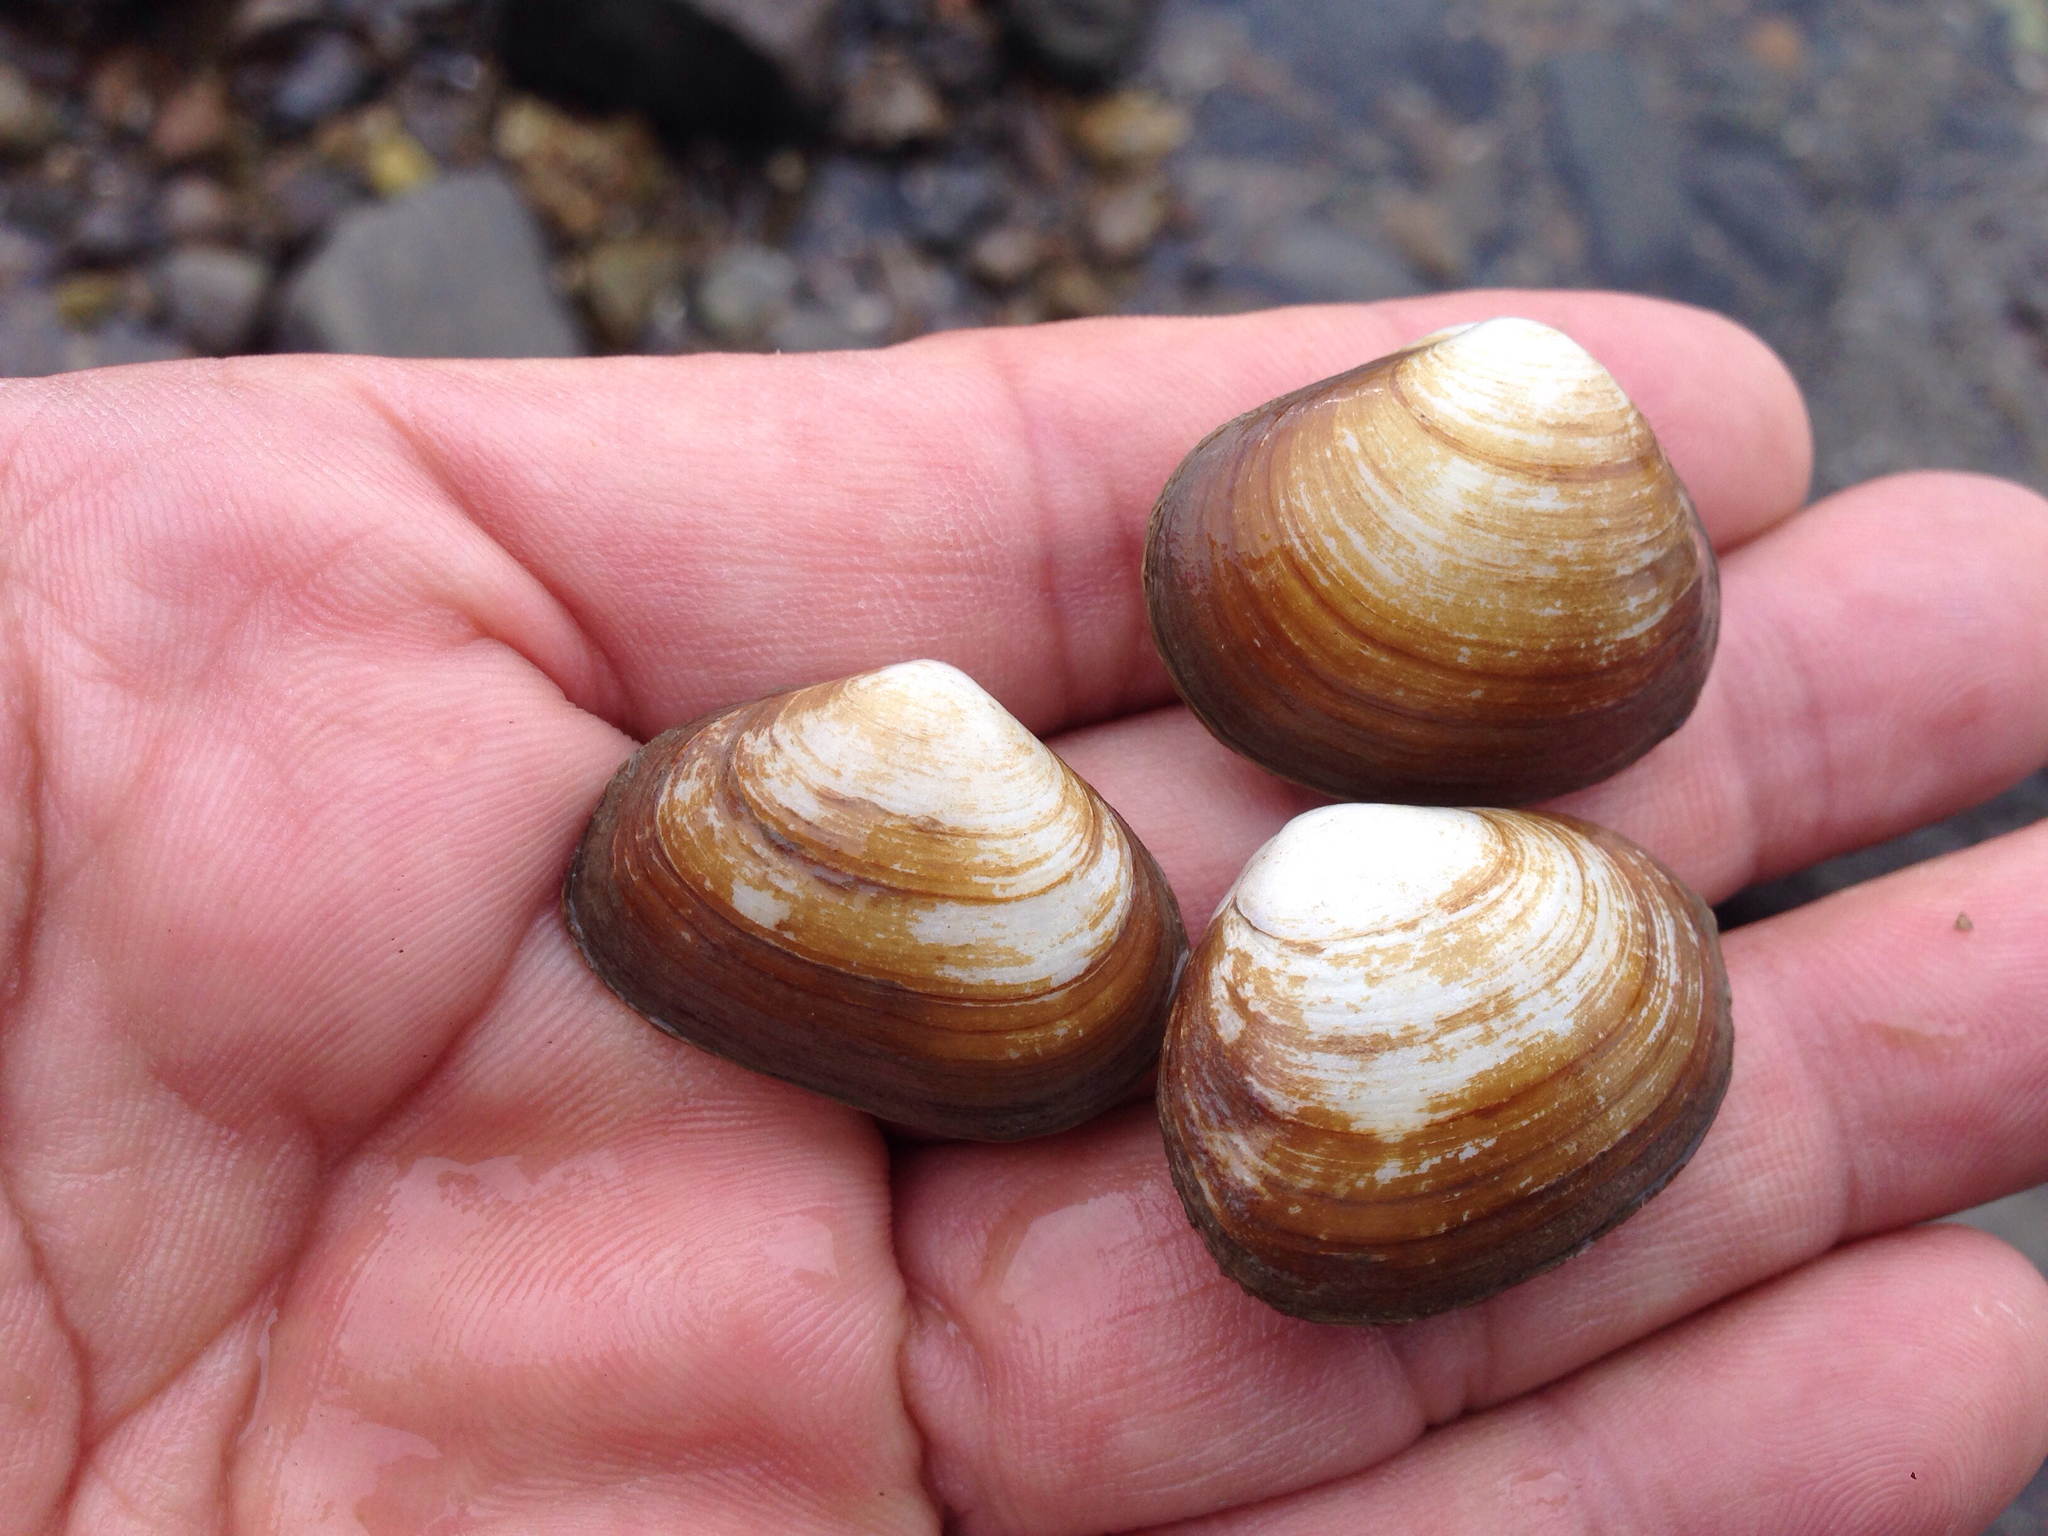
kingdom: Animalia
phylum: Mollusca
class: Bivalvia
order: Venerida
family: Mesodesmatidae
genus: Coecella
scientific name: Coecella chinensis
